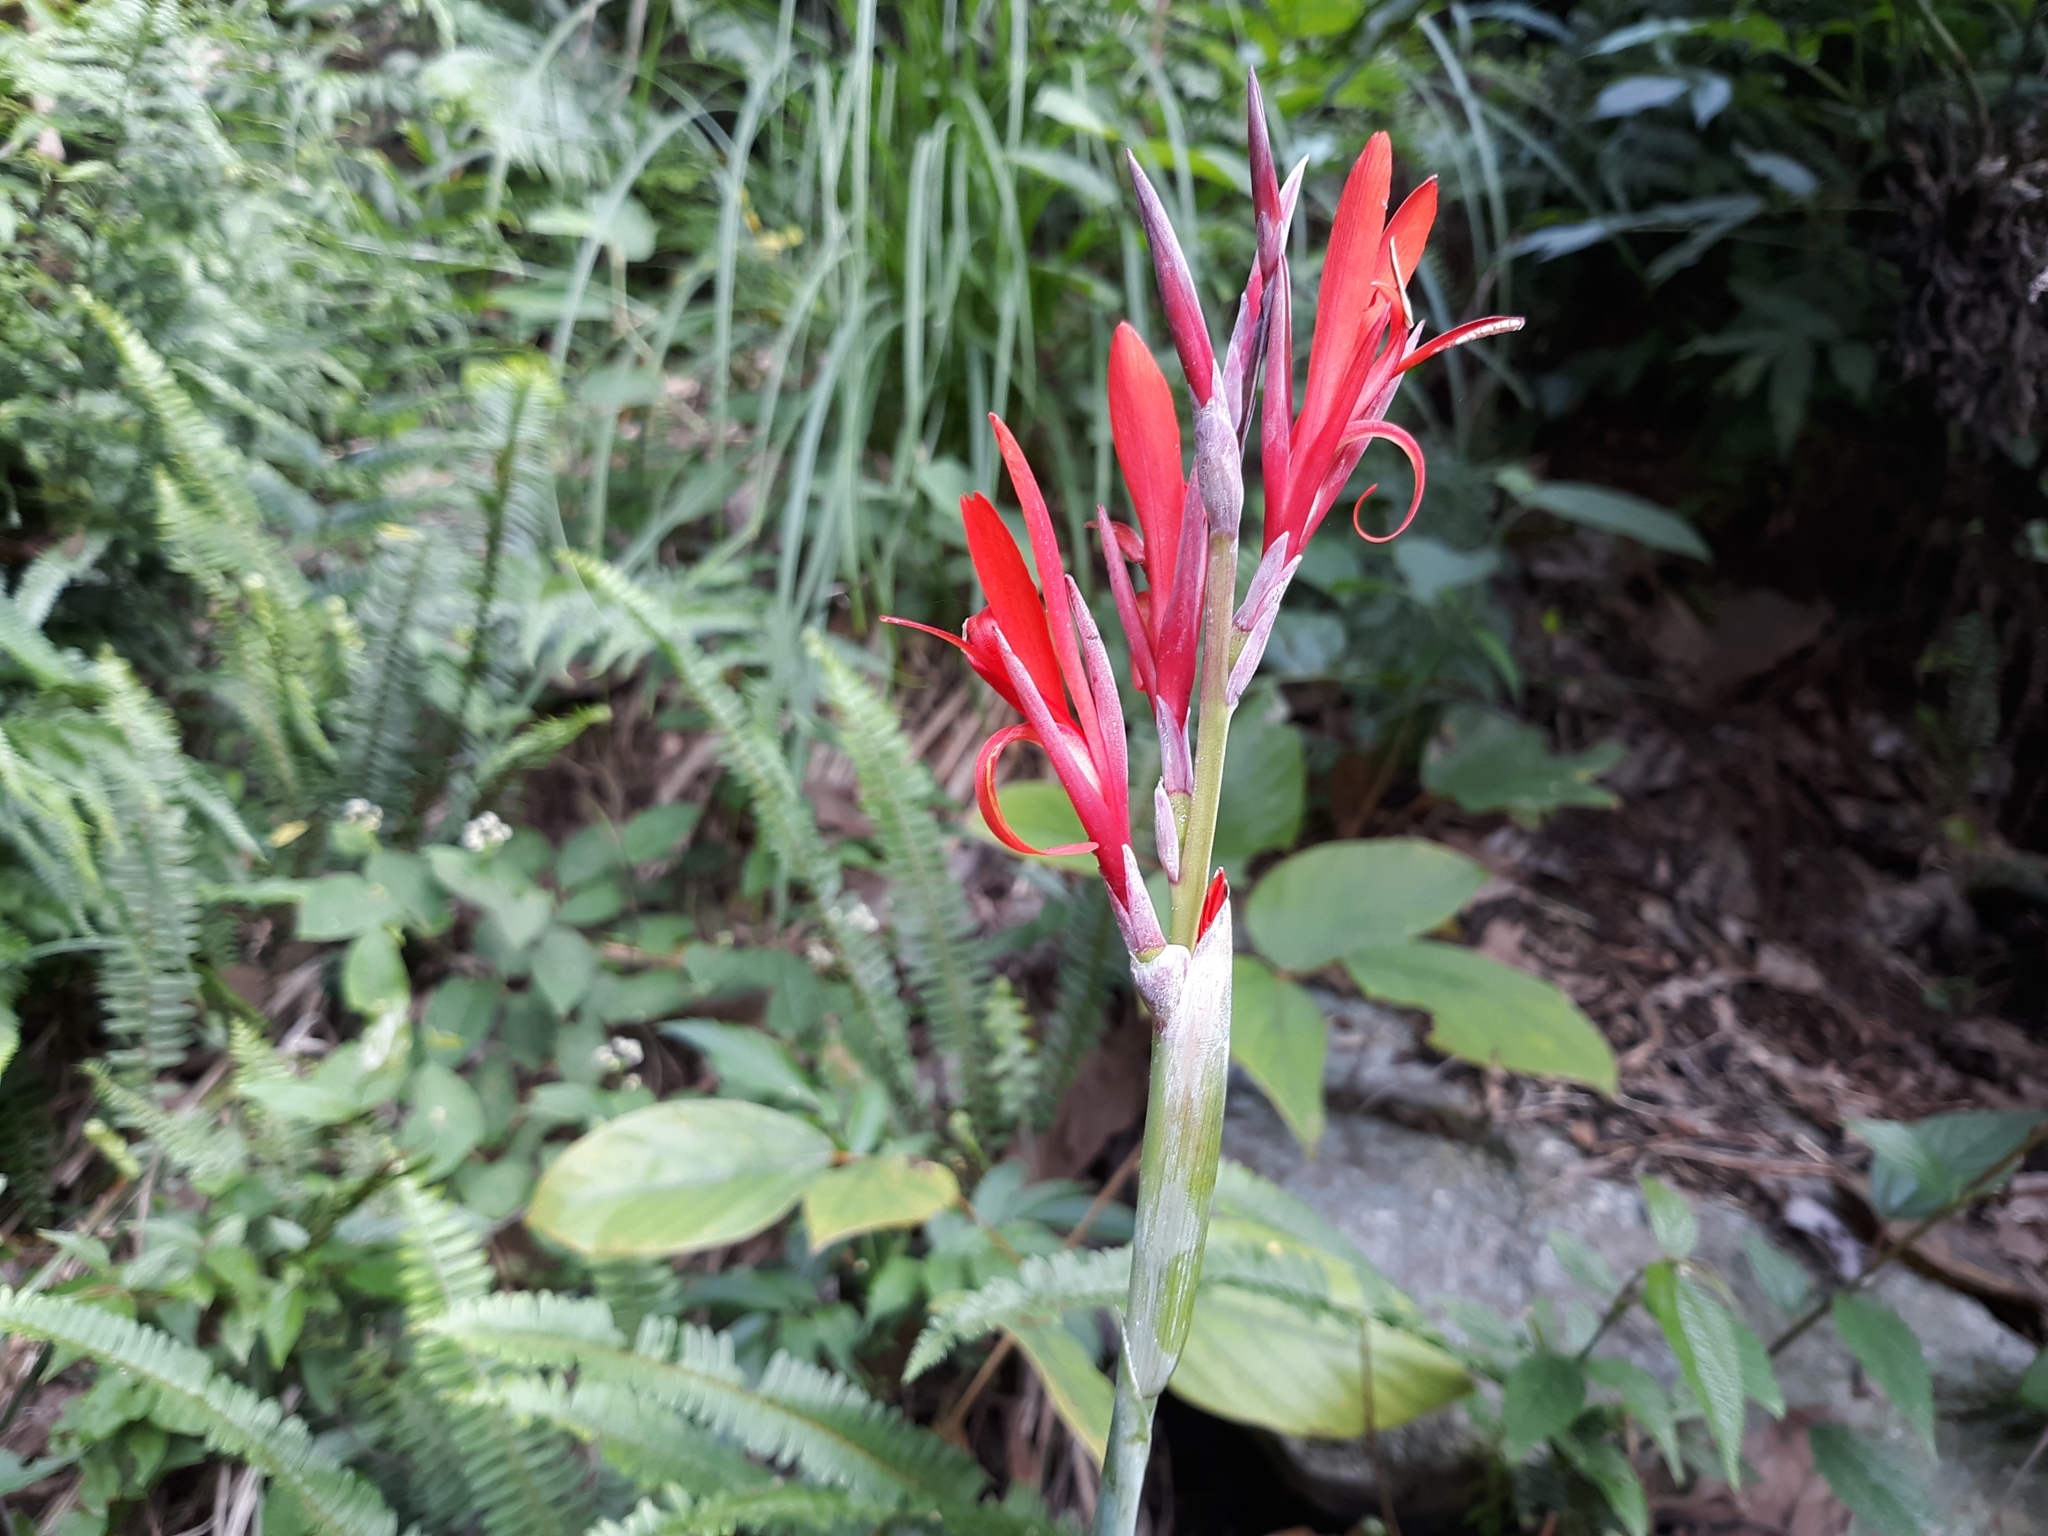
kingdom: Plantae
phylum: Tracheophyta
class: Liliopsida
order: Zingiberales
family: Cannaceae
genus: Canna
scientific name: Canna indica
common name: Indian shot
